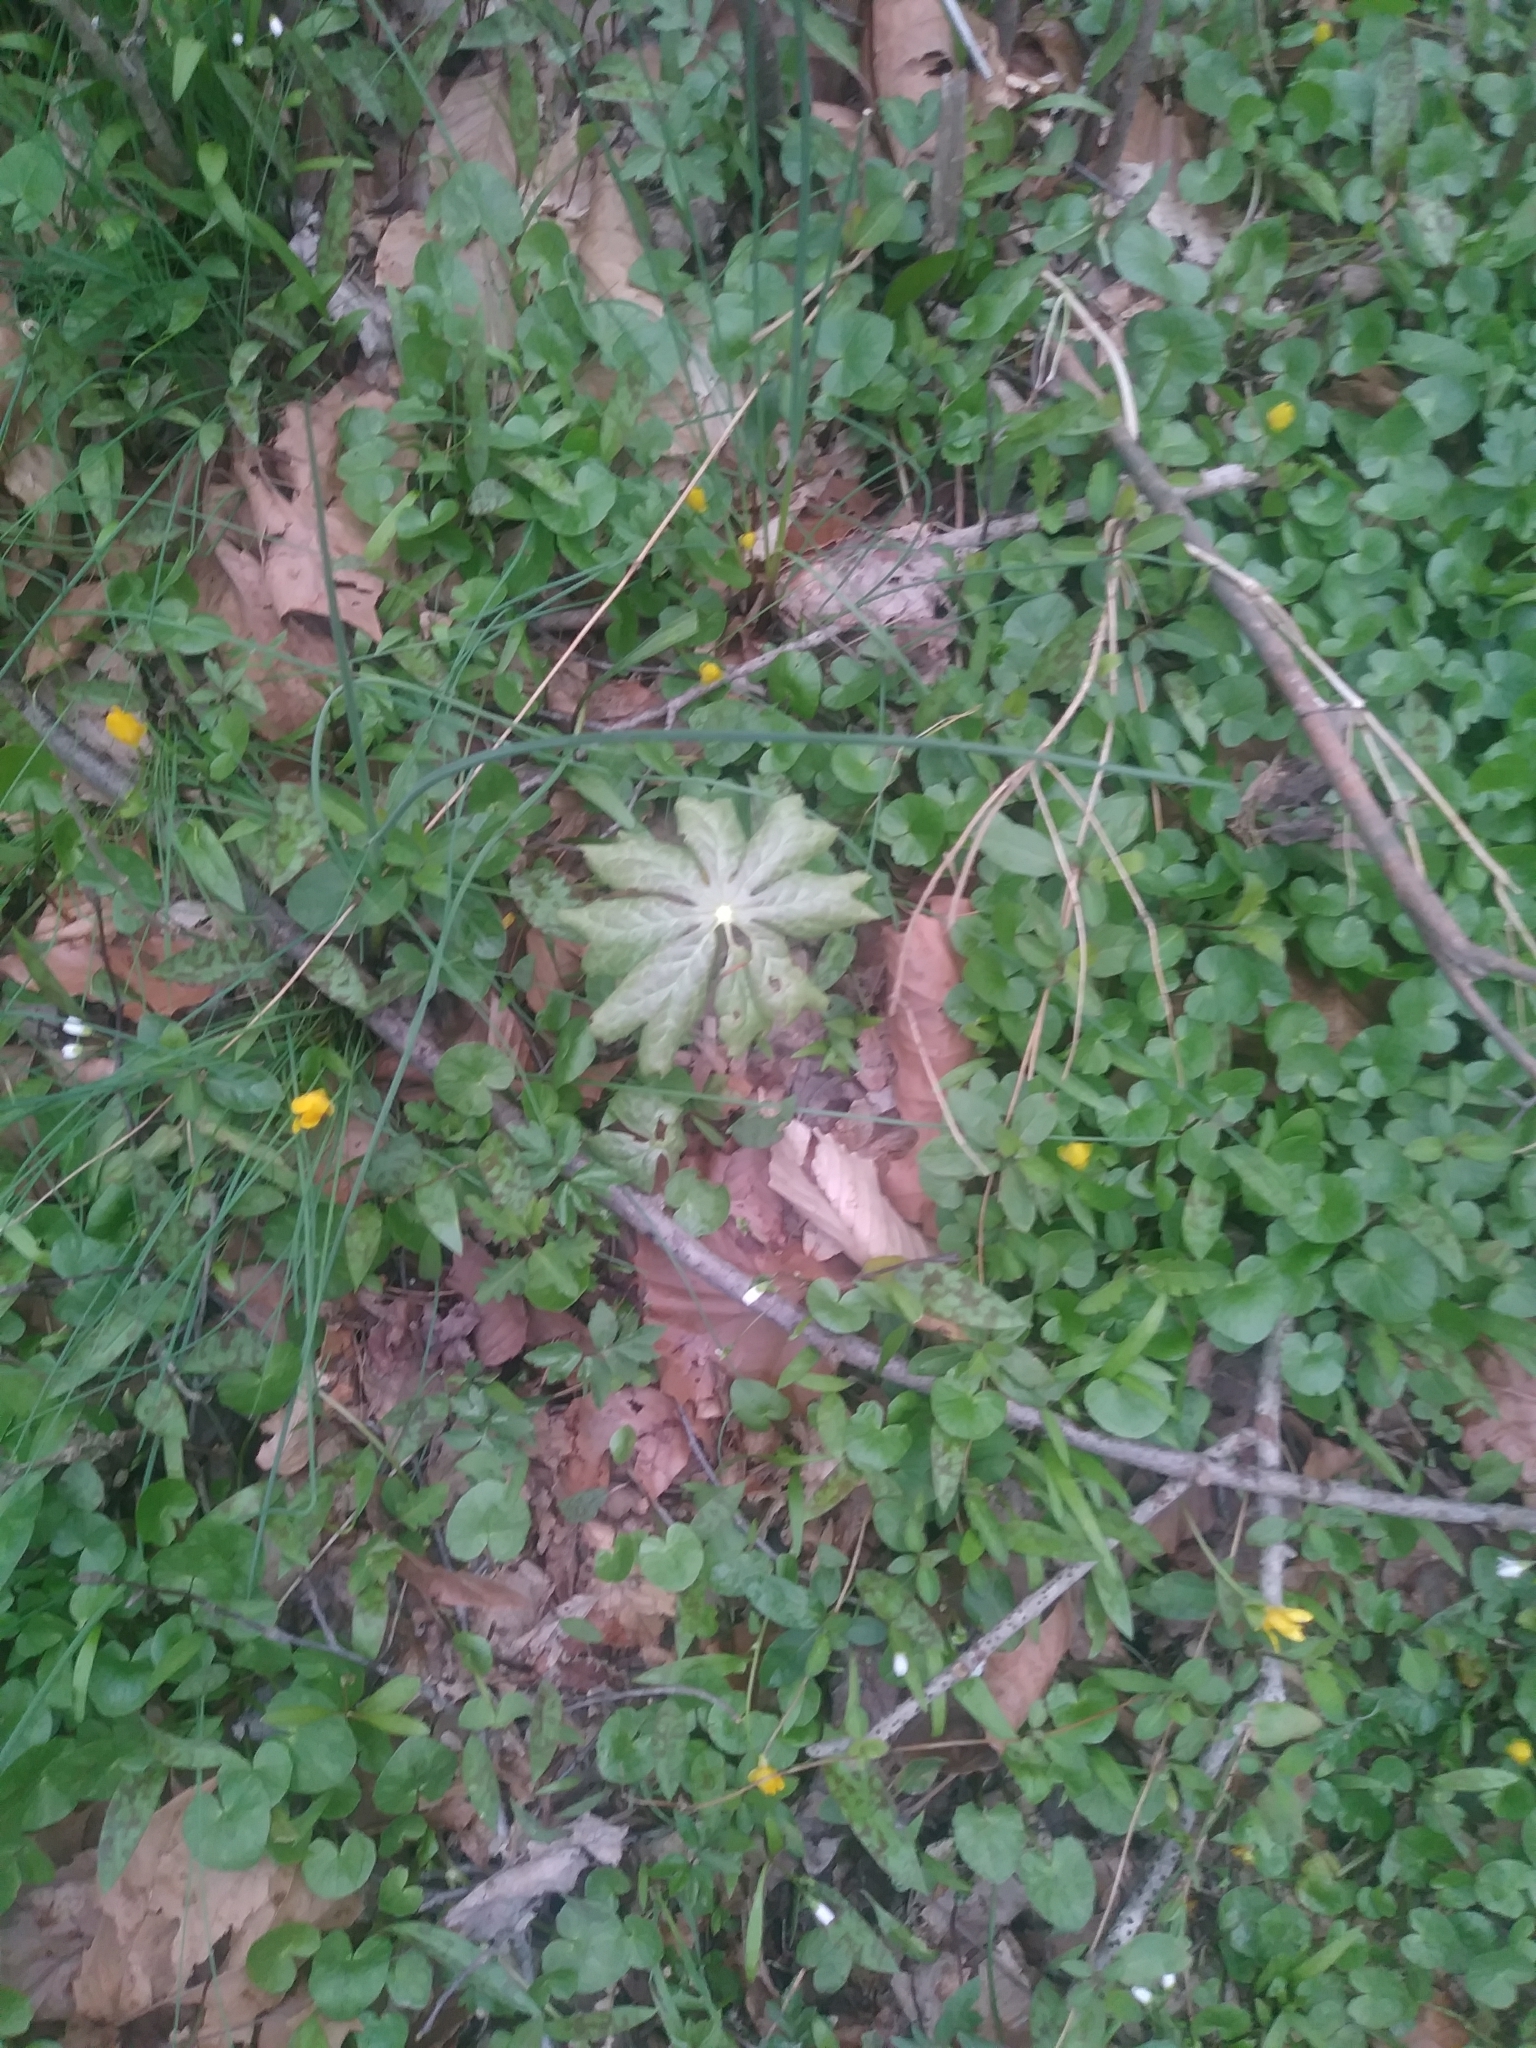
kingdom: Plantae
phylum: Tracheophyta
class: Magnoliopsida
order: Ranunculales
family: Berberidaceae
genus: Podophyllum
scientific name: Podophyllum peltatum
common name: Wild mandrake
